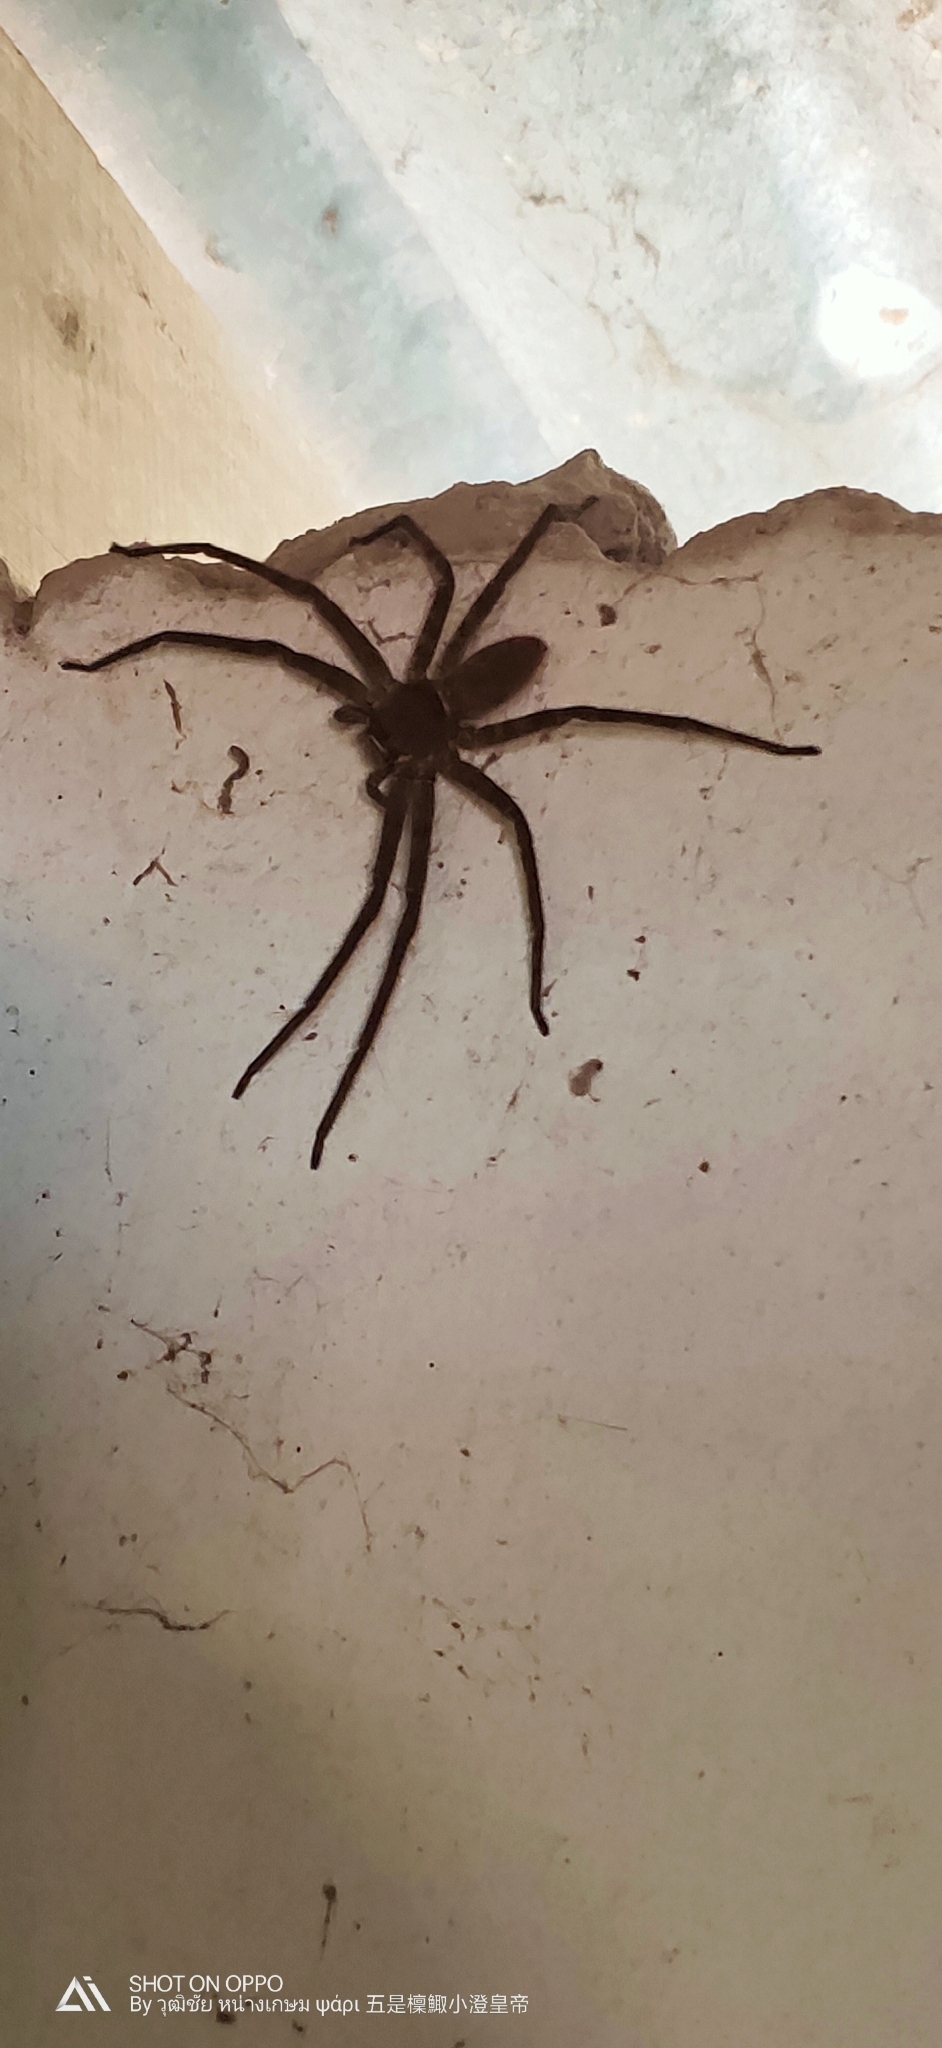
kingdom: Animalia
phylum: Arthropoda
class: Arachnida
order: Araneae
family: Sparassidae
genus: Heteropoda
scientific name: Heteropoda venatoria
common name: Huntsman spider
